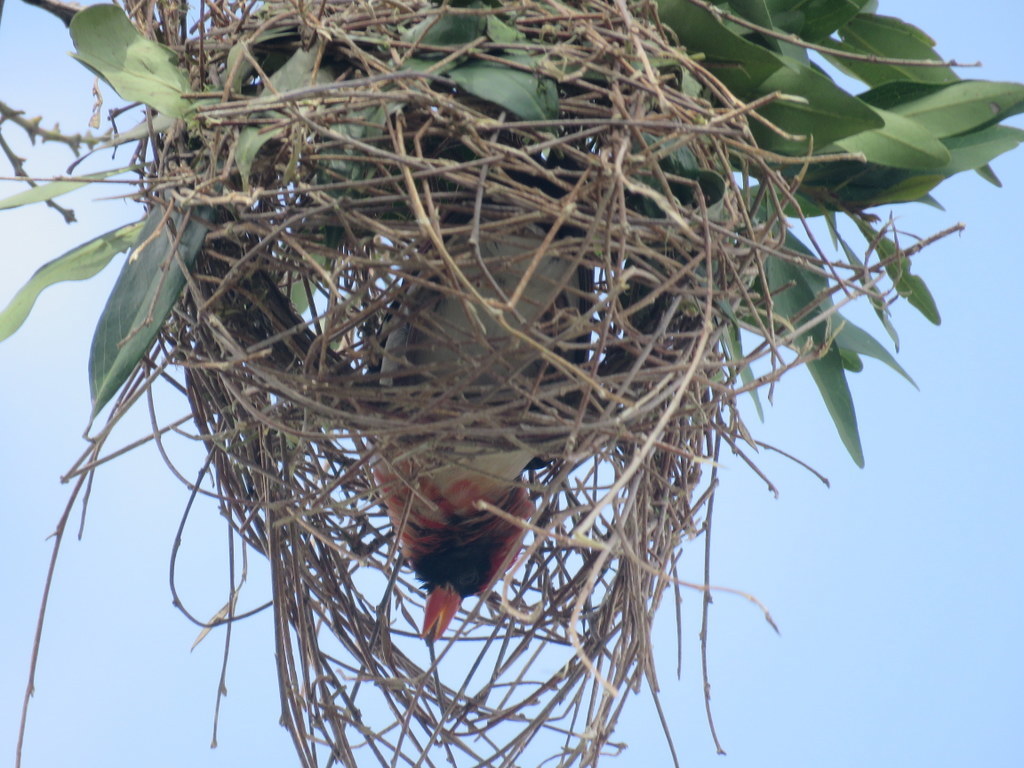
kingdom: Animalia
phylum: Chordata
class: Aves
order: Passeriformes
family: Ploceidae
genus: Anaplectes
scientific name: Anaplectes rubriceps
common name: Red-headed weaver
